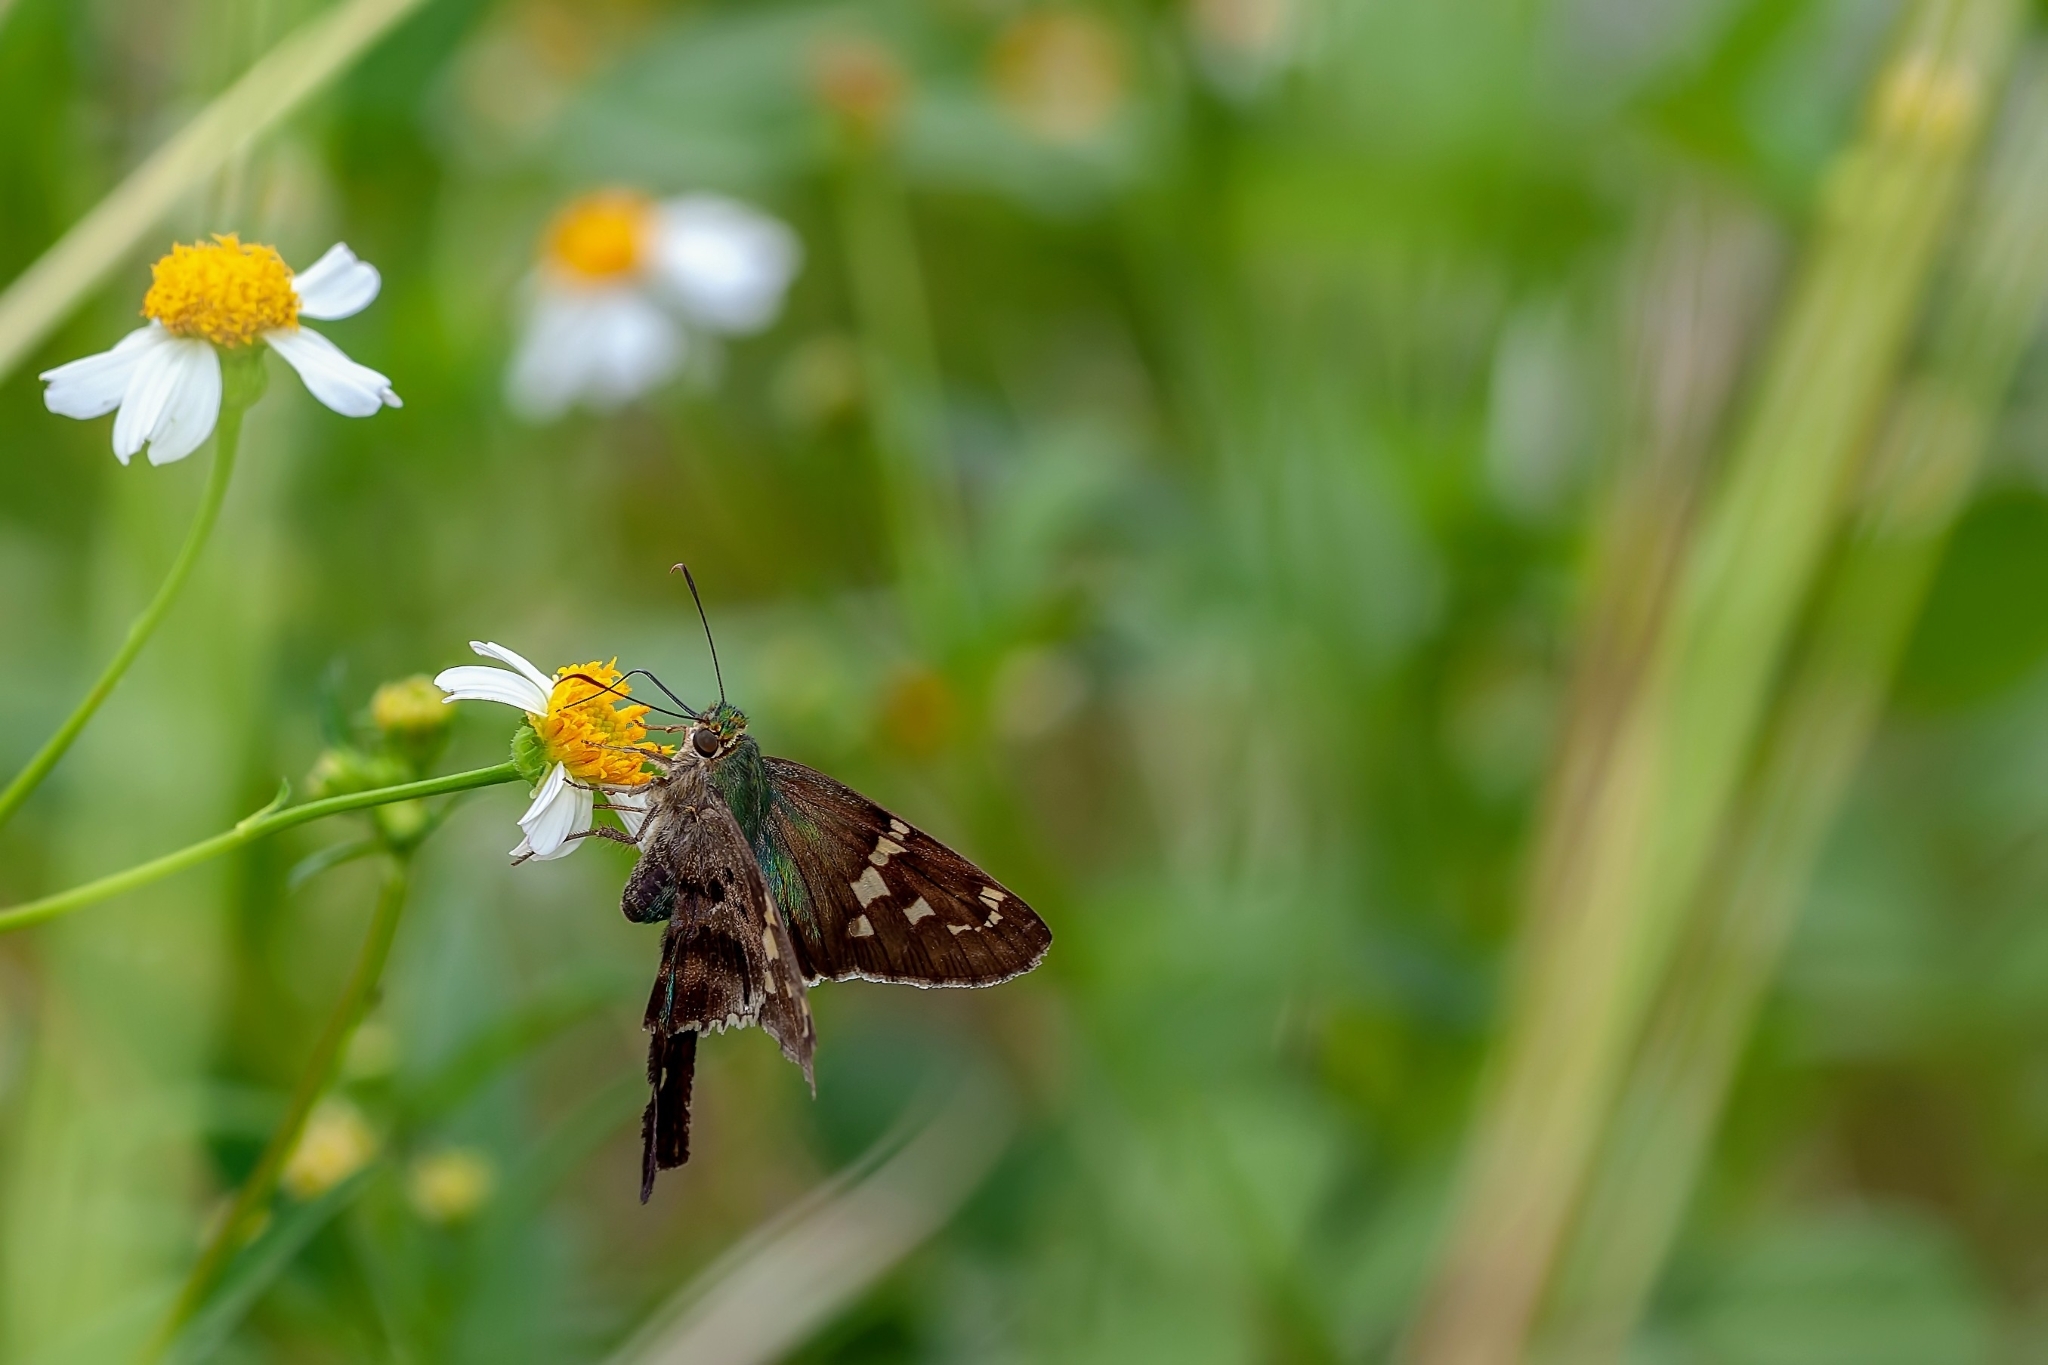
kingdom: Animalia
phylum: Arthropoda
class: Insecta
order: Lepidoptera
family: Hesperiidae
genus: Urbanus
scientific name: Urbanus proteus
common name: Long-tailed skipper
